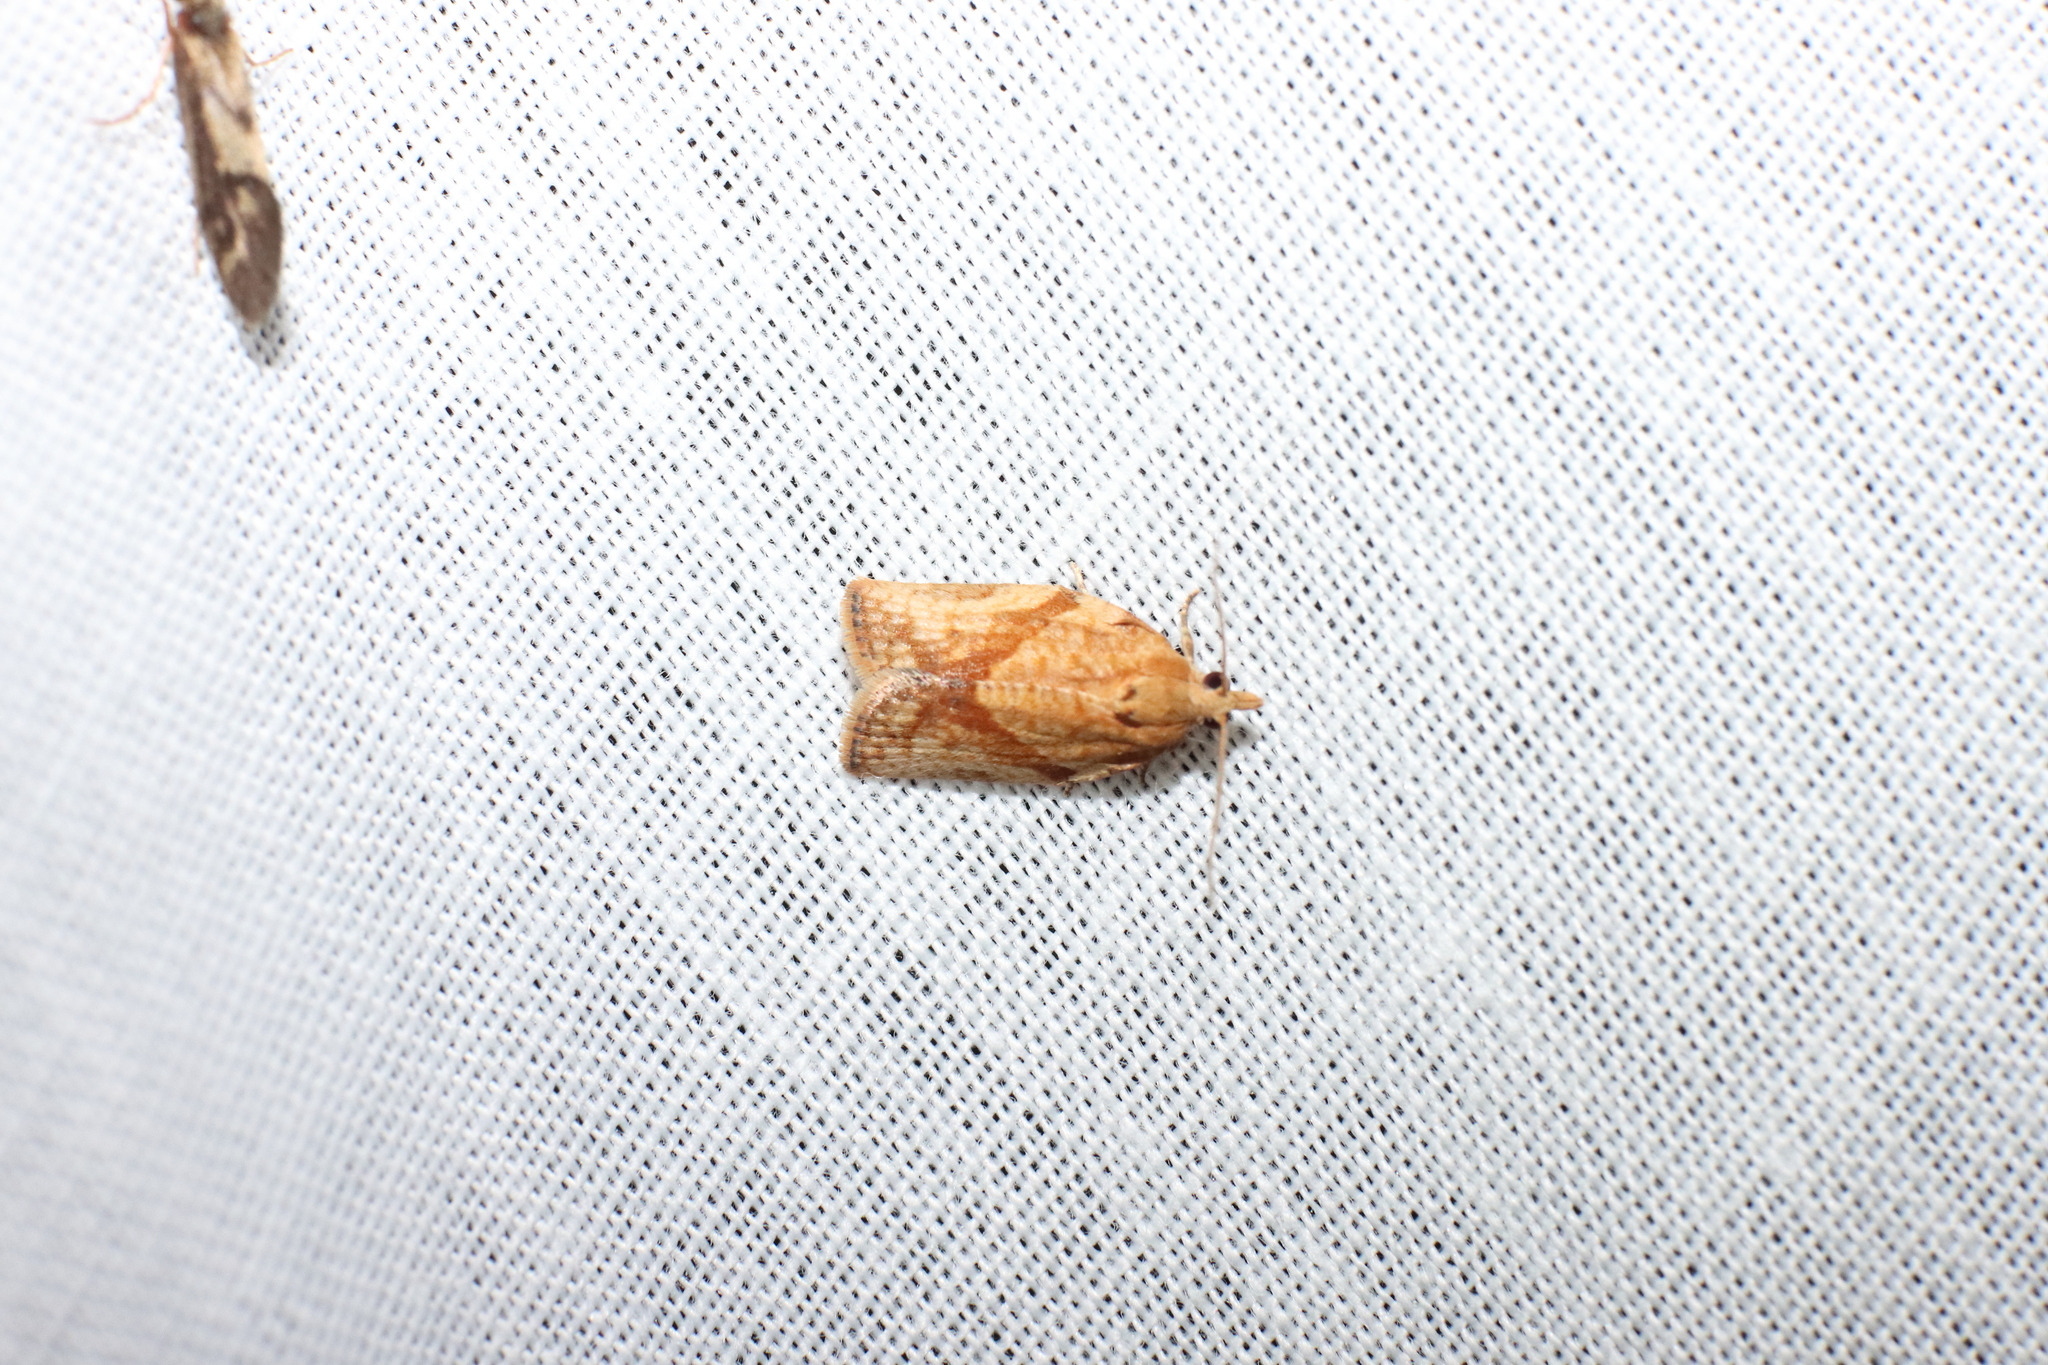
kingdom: Animalia
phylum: Arthropoda
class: Insecta
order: Lepidoptera
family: Tortricidae
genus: Epiphyas
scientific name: Epiphyas postvittana
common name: Light brown apple moth
